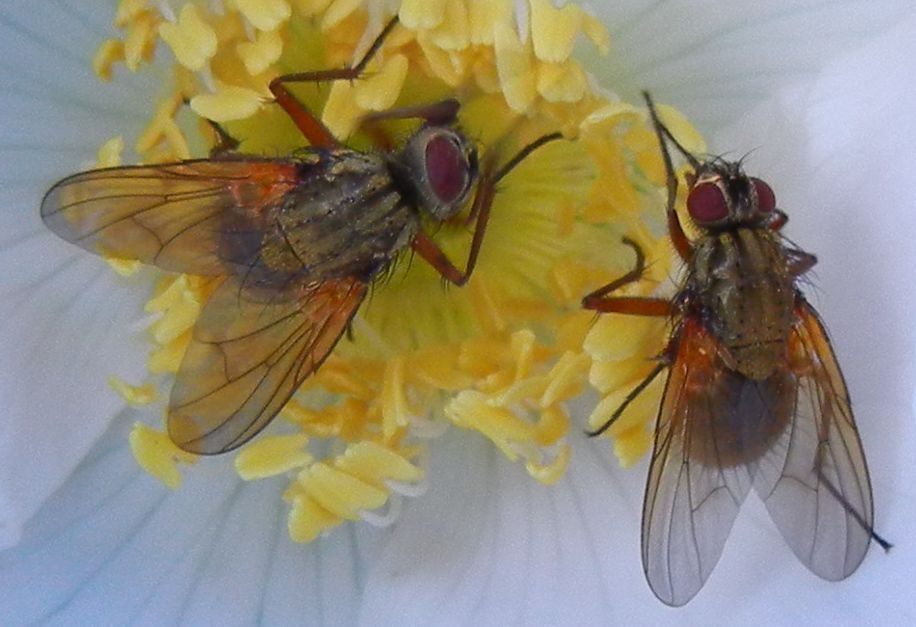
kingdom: Animalia
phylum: Arthropoda
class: Insecta
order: Diptera
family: Muscidae
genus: Phaonia
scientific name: Phaonia angelicae
